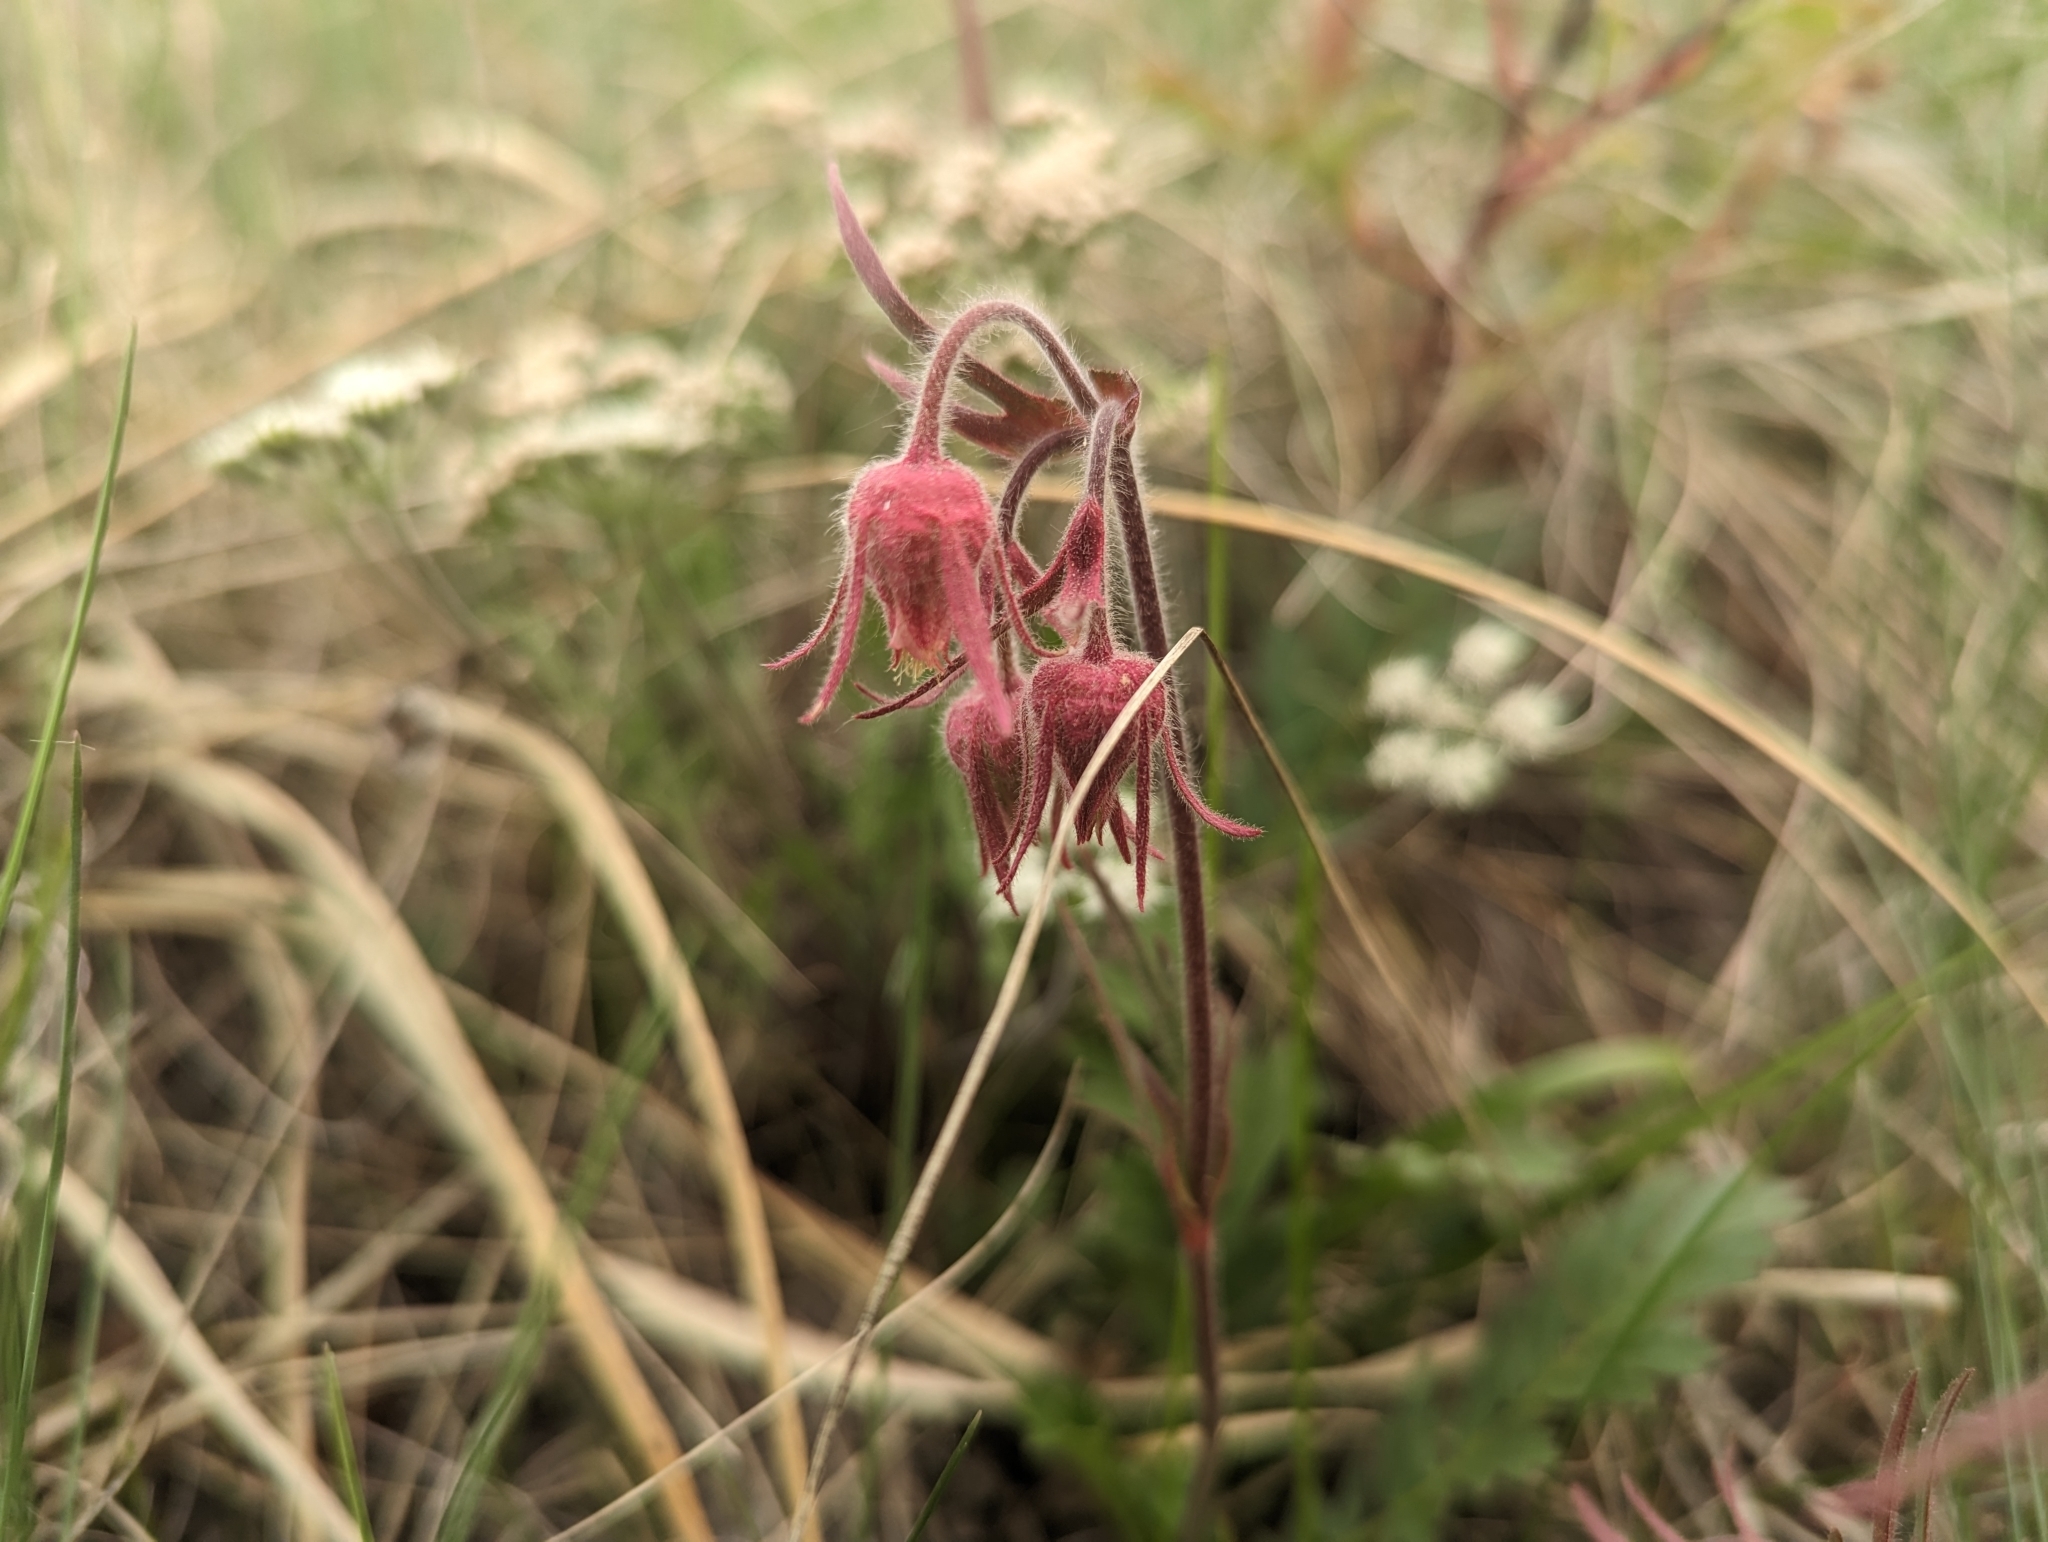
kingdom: Plantae
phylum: Tracheophyta
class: Magnoliopsida
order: Rosales
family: Rosaceae
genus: Geum
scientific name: Geum triflorum
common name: Old man's whiskers
